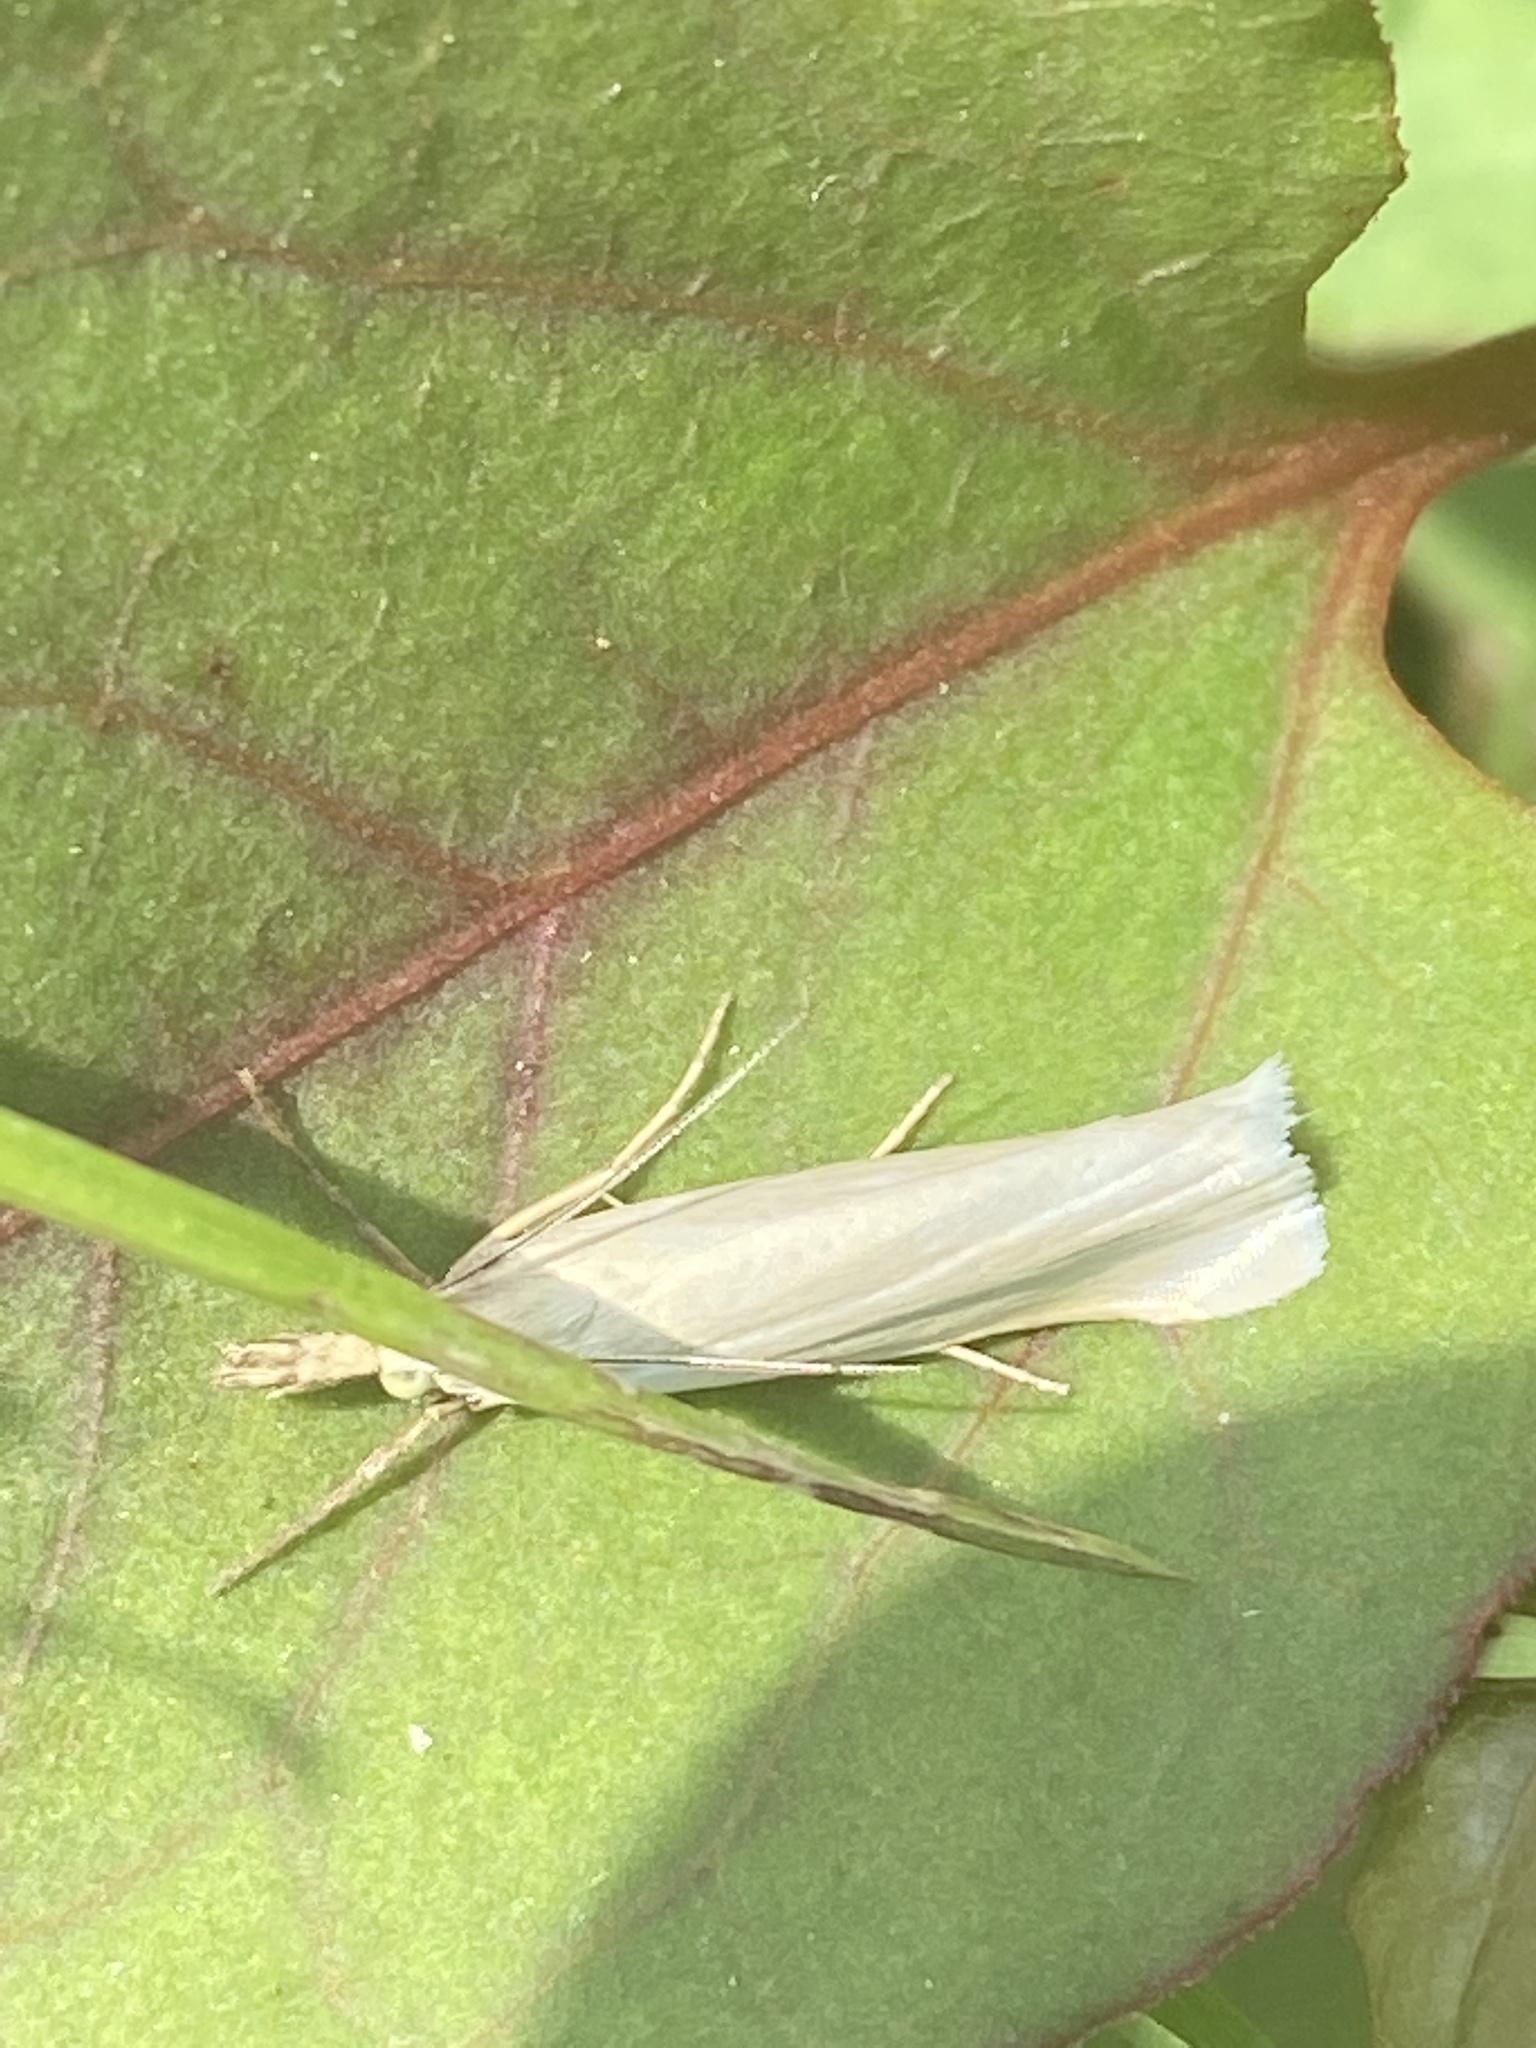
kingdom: Animalia
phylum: Arthropoda
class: Insecta
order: Lepidoptera
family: Crambidae
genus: Crambus
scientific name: Crambus perlellus
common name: Yellow satin veneer
